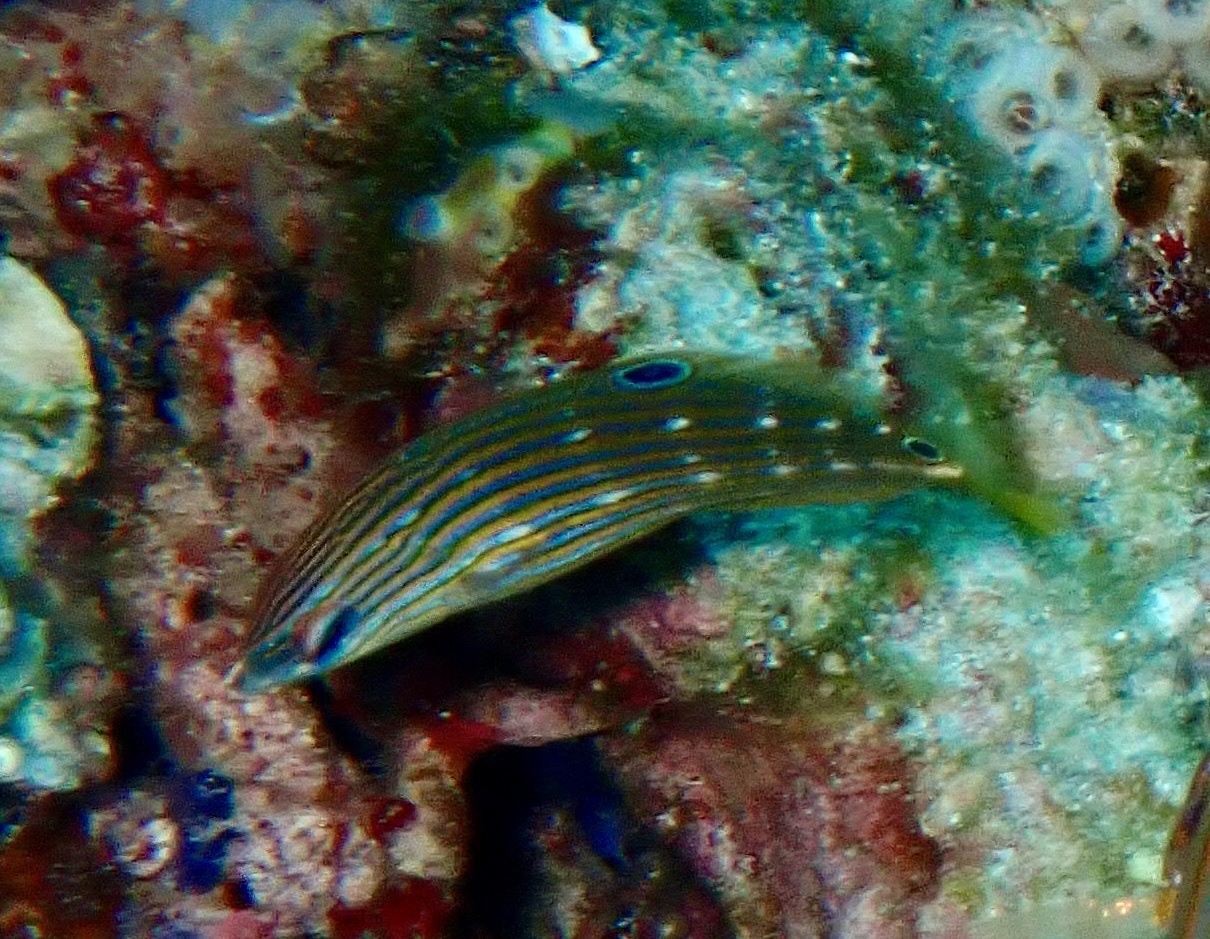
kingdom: Animalia
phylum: Chordata
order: Perciformes
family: Labridae
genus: Halichoeres
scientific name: Halichoeres melanurus
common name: Hoeven's wrasse
